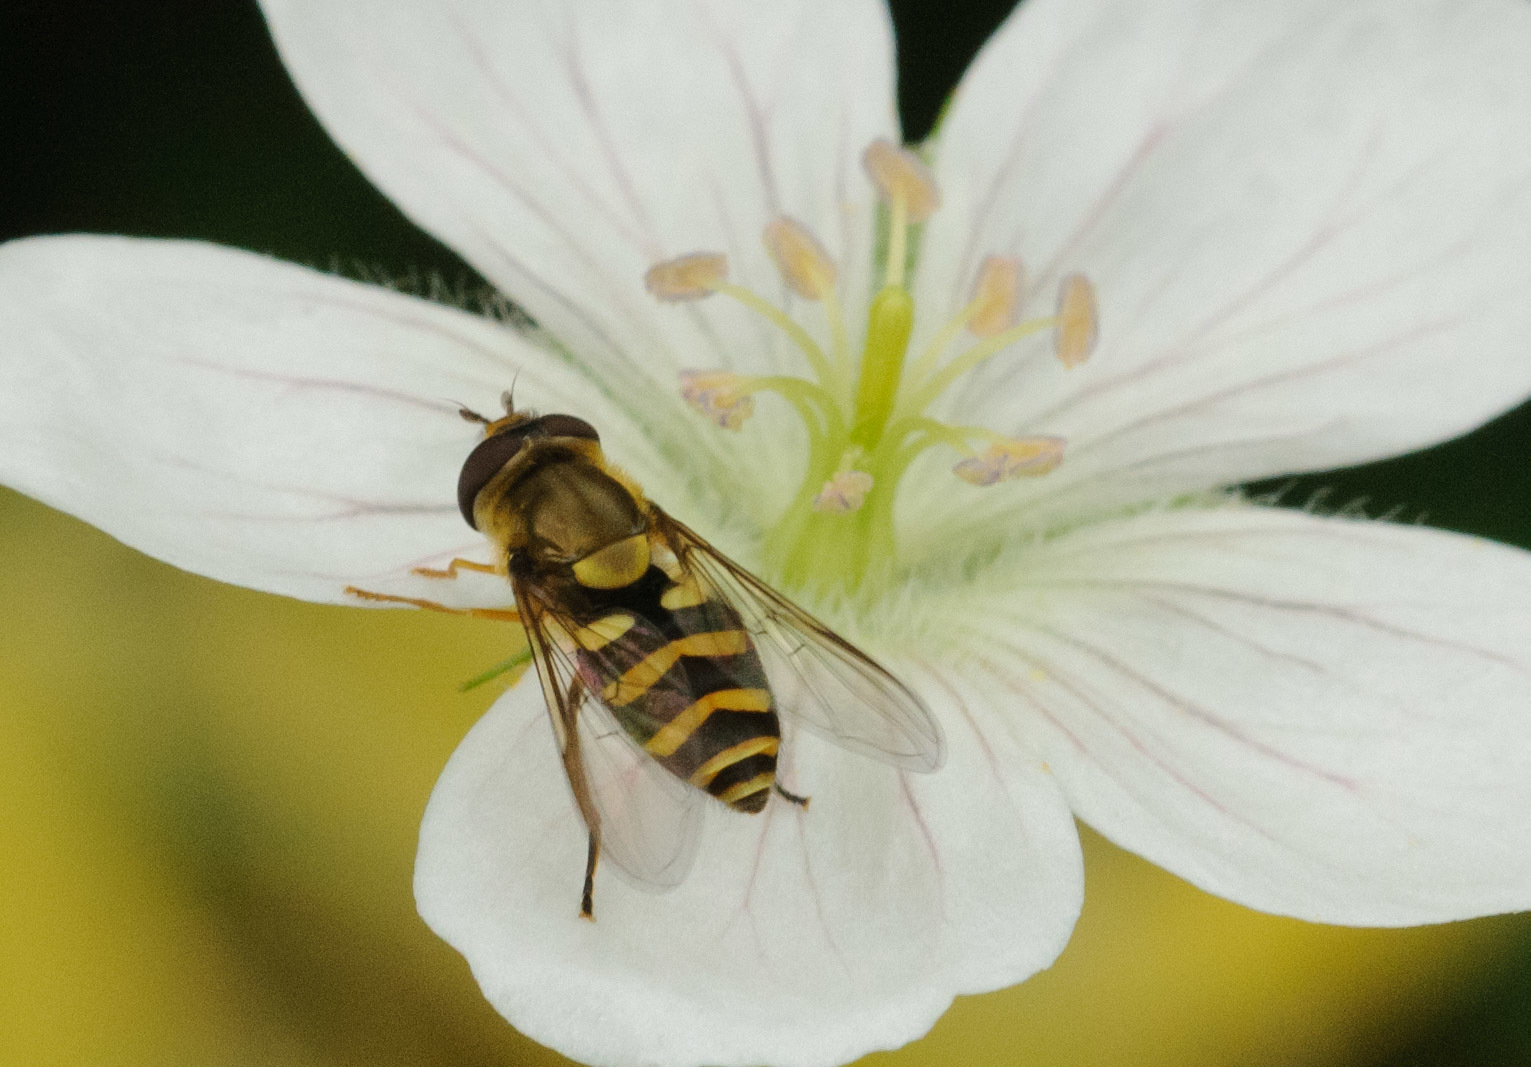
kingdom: Animalia
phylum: Arthropoda
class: Insecta
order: Diptera
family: Syrphidae
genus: Syrphus
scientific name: Syrphus opinator
